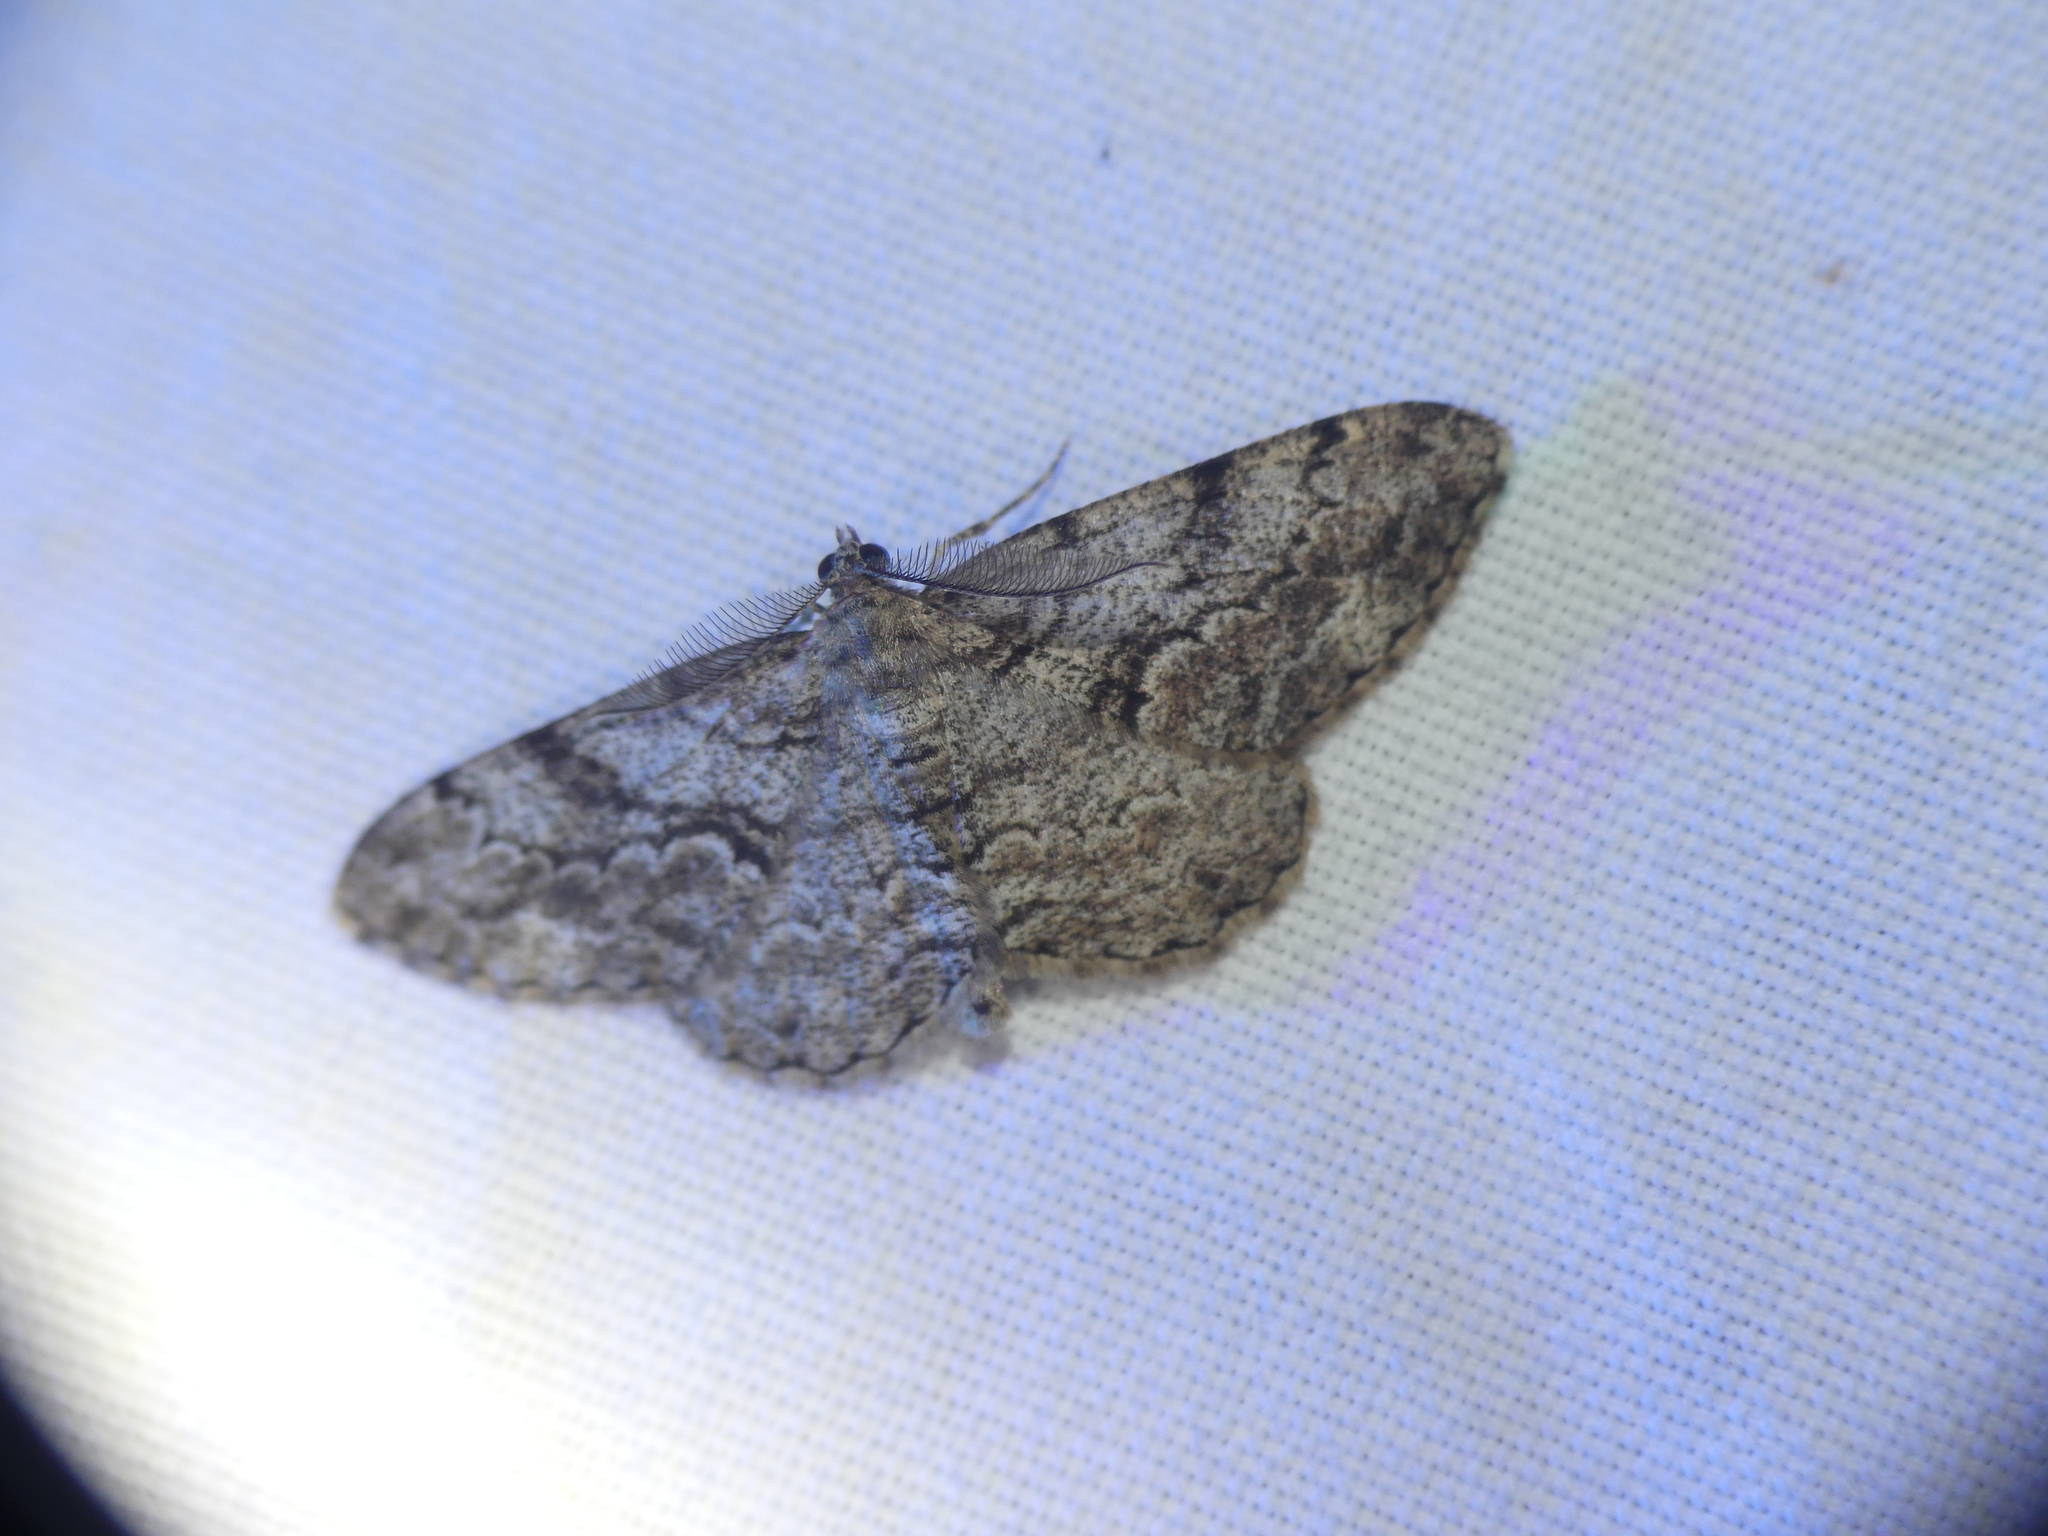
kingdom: Animalia
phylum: Arthropoda
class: Insecta
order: Lepidoptera
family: Geometridae
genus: Peribatodes
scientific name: Peribatodes secundaria
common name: Feathered beauty
